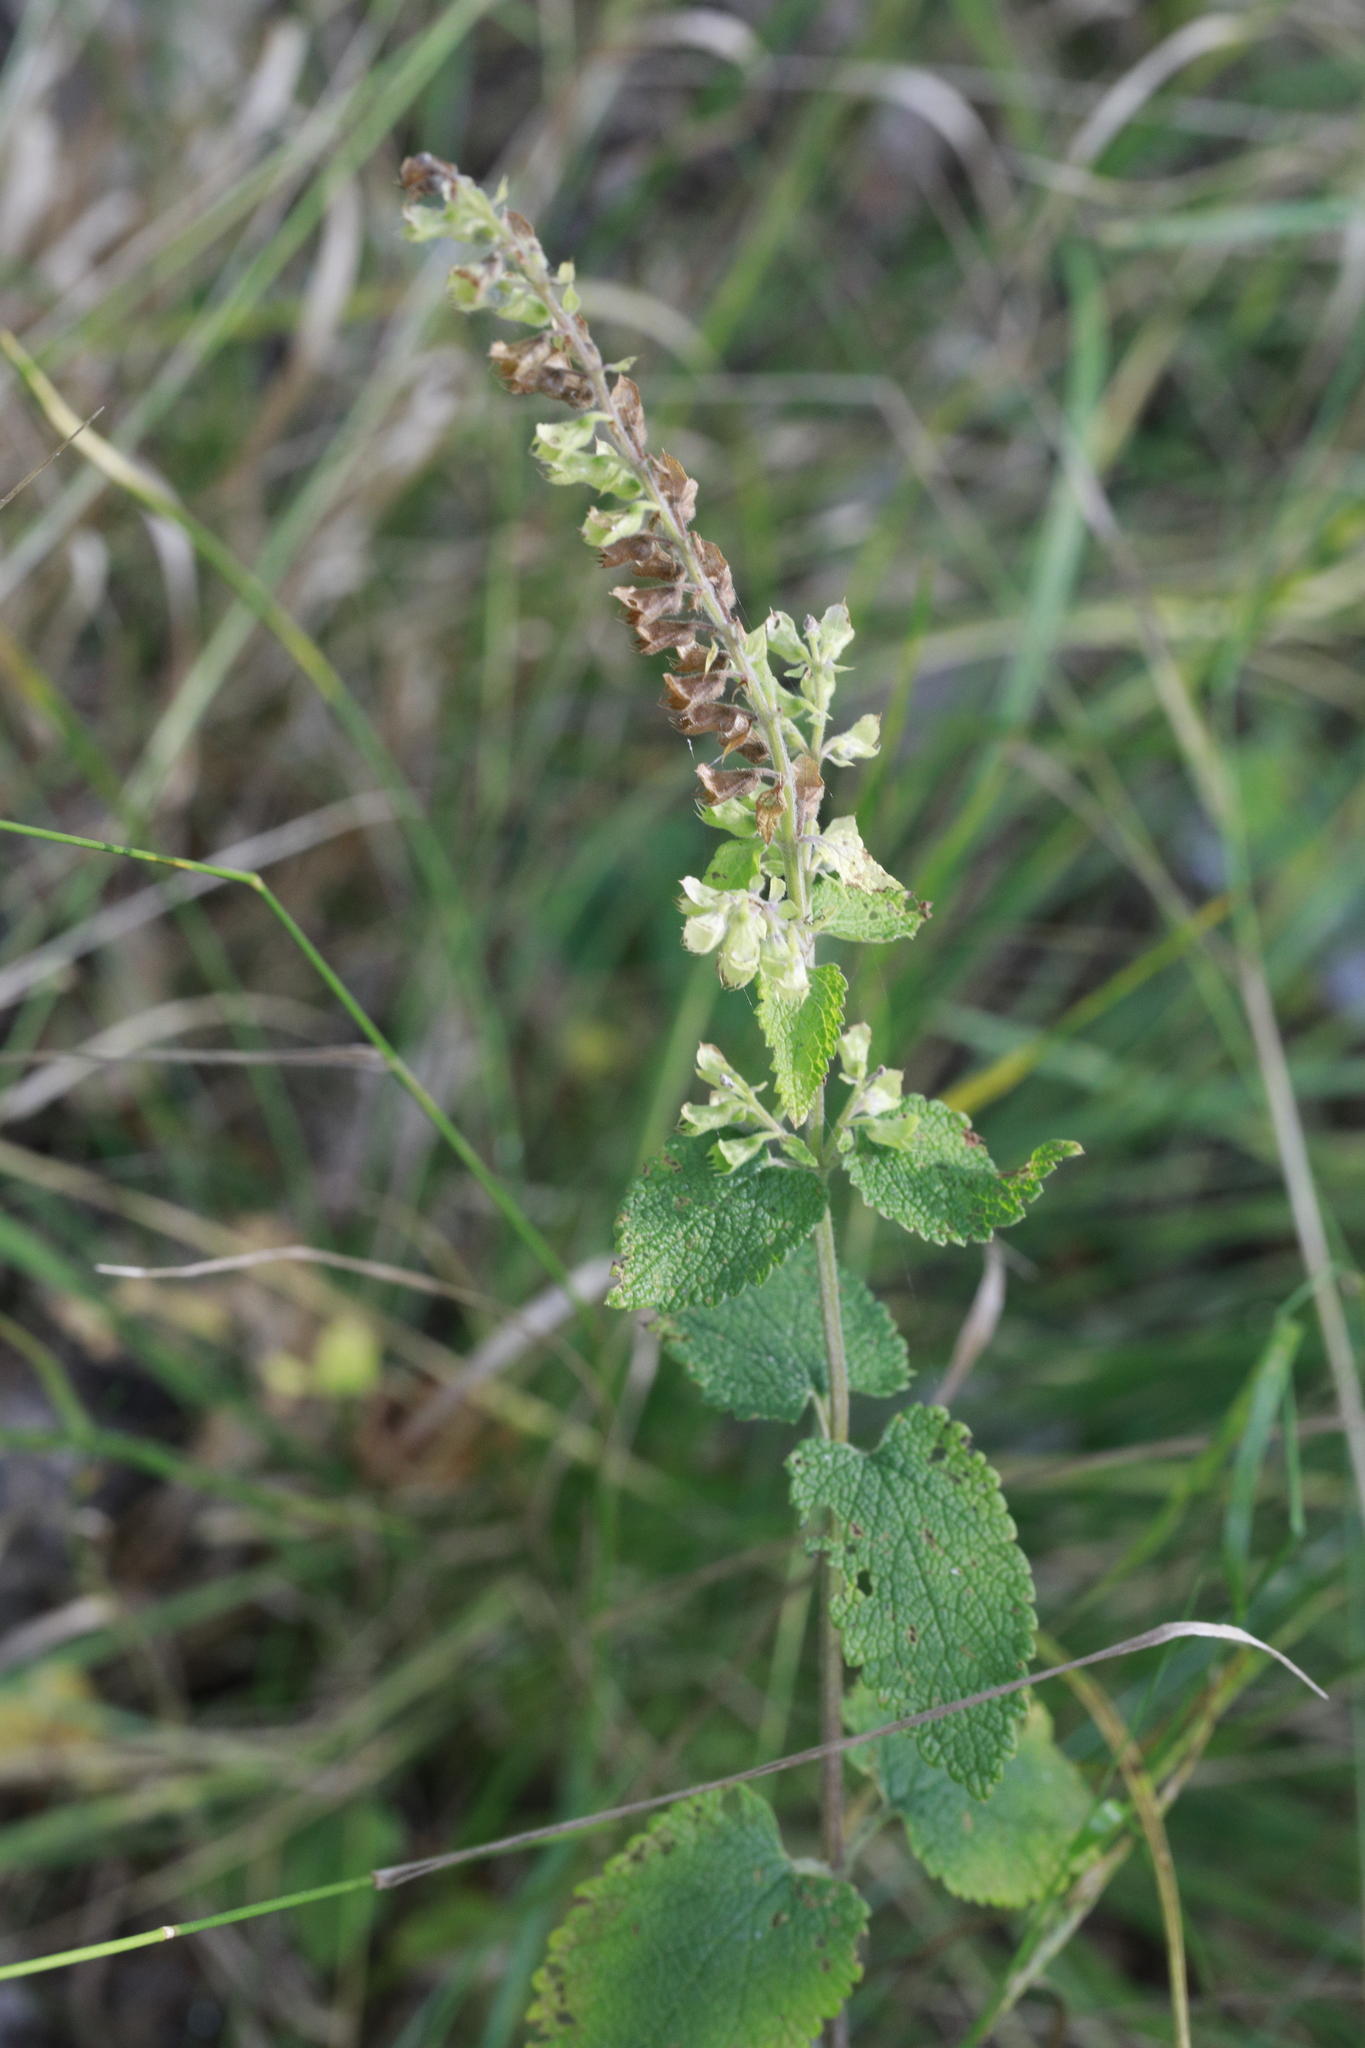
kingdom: Plantae
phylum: Tracheophyta
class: Magnoliopsida
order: Lamiales
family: Lamiaceae
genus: Teucrium
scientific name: Teucrium scorodonia
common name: Woodland germander
